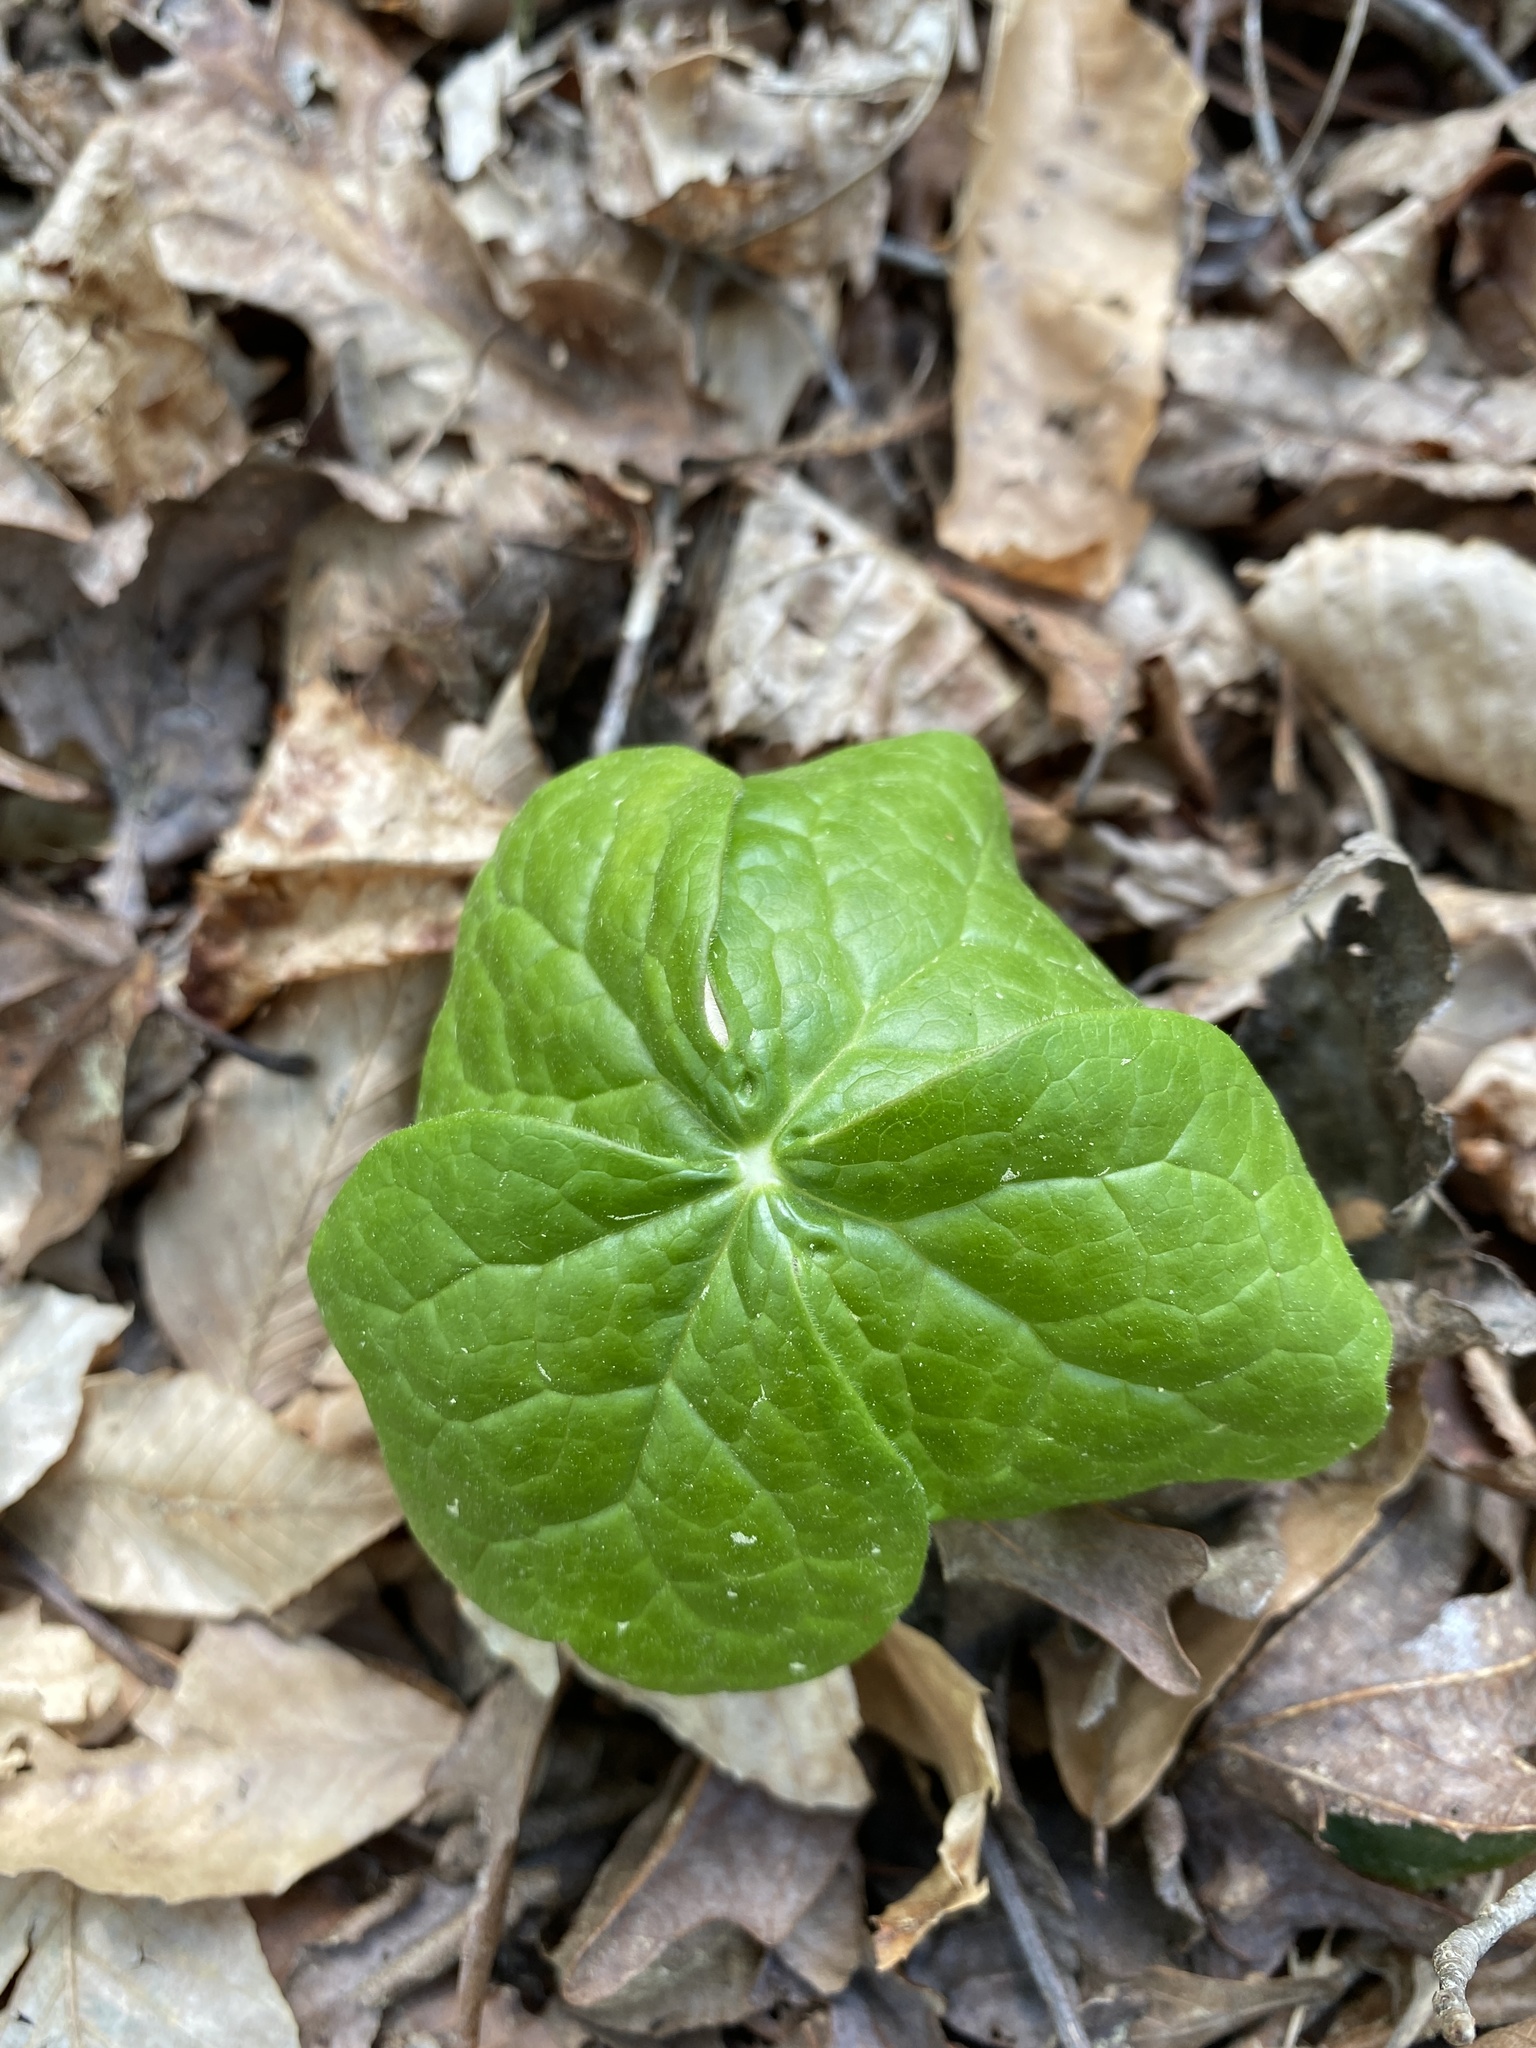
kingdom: Plantae
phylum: Tracheophyta
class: Magnoliopsida
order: Ranunculales
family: Berberidaceae
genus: Podophyllum
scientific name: Podophyllum peltatum
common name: Wild mandrake
